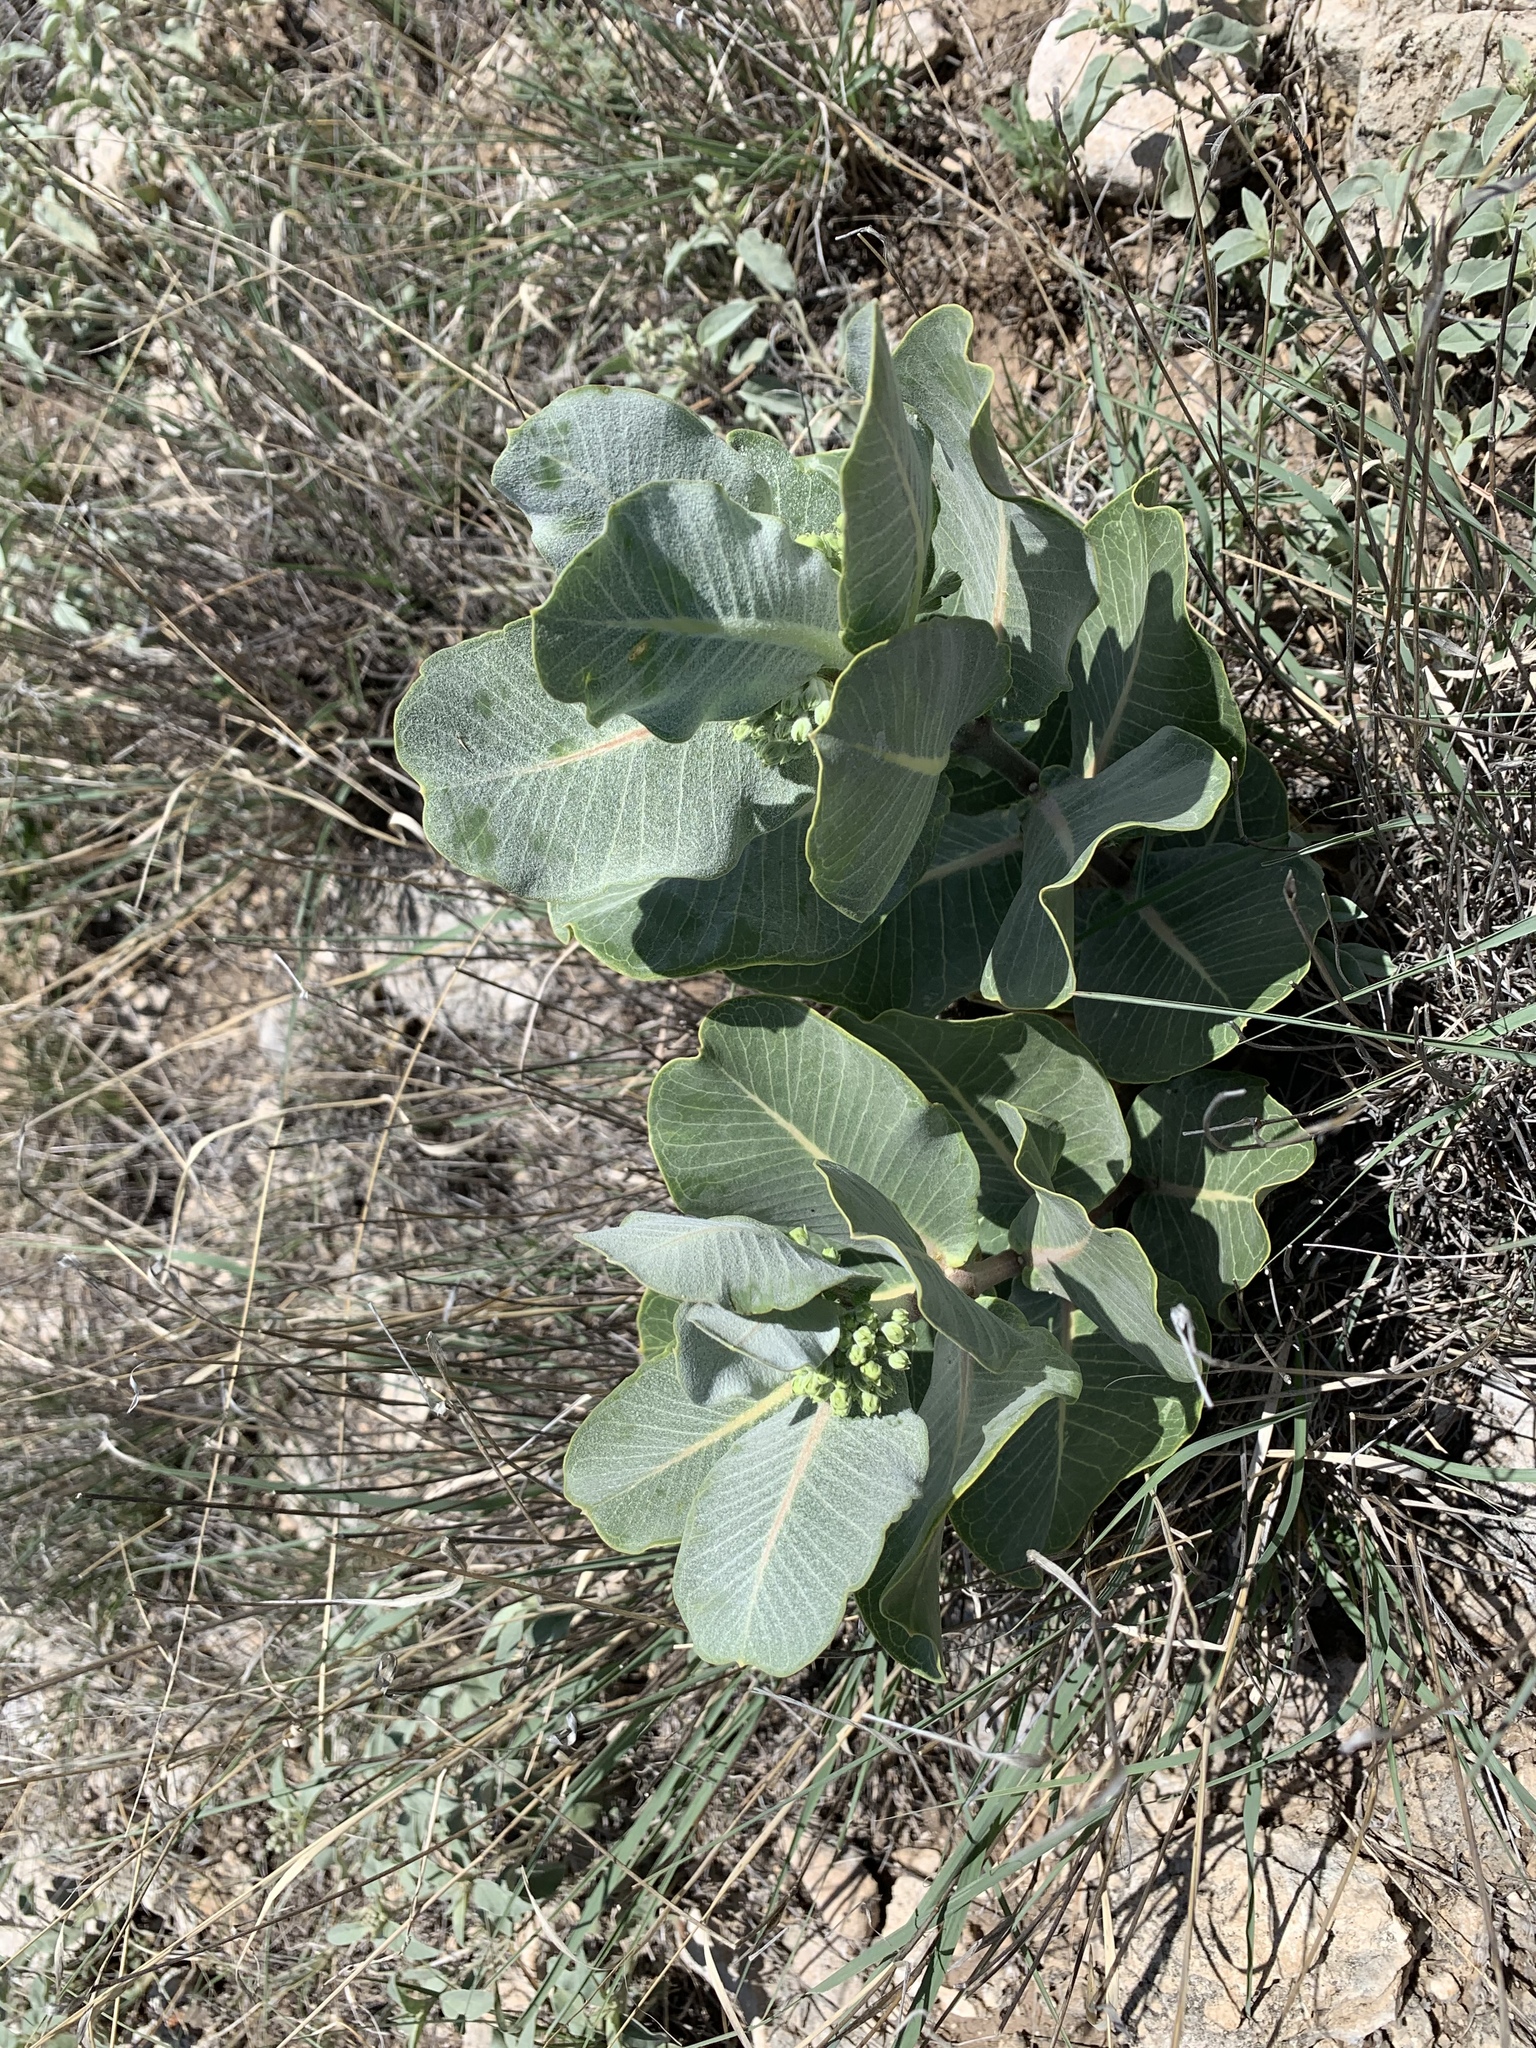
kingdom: Plantae
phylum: Tracheophyta
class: Magnoliopsida
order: Gentianales
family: Apocynaceae
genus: Asclepias
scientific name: Asclepias latifolia
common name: Broadleaf milkweed
